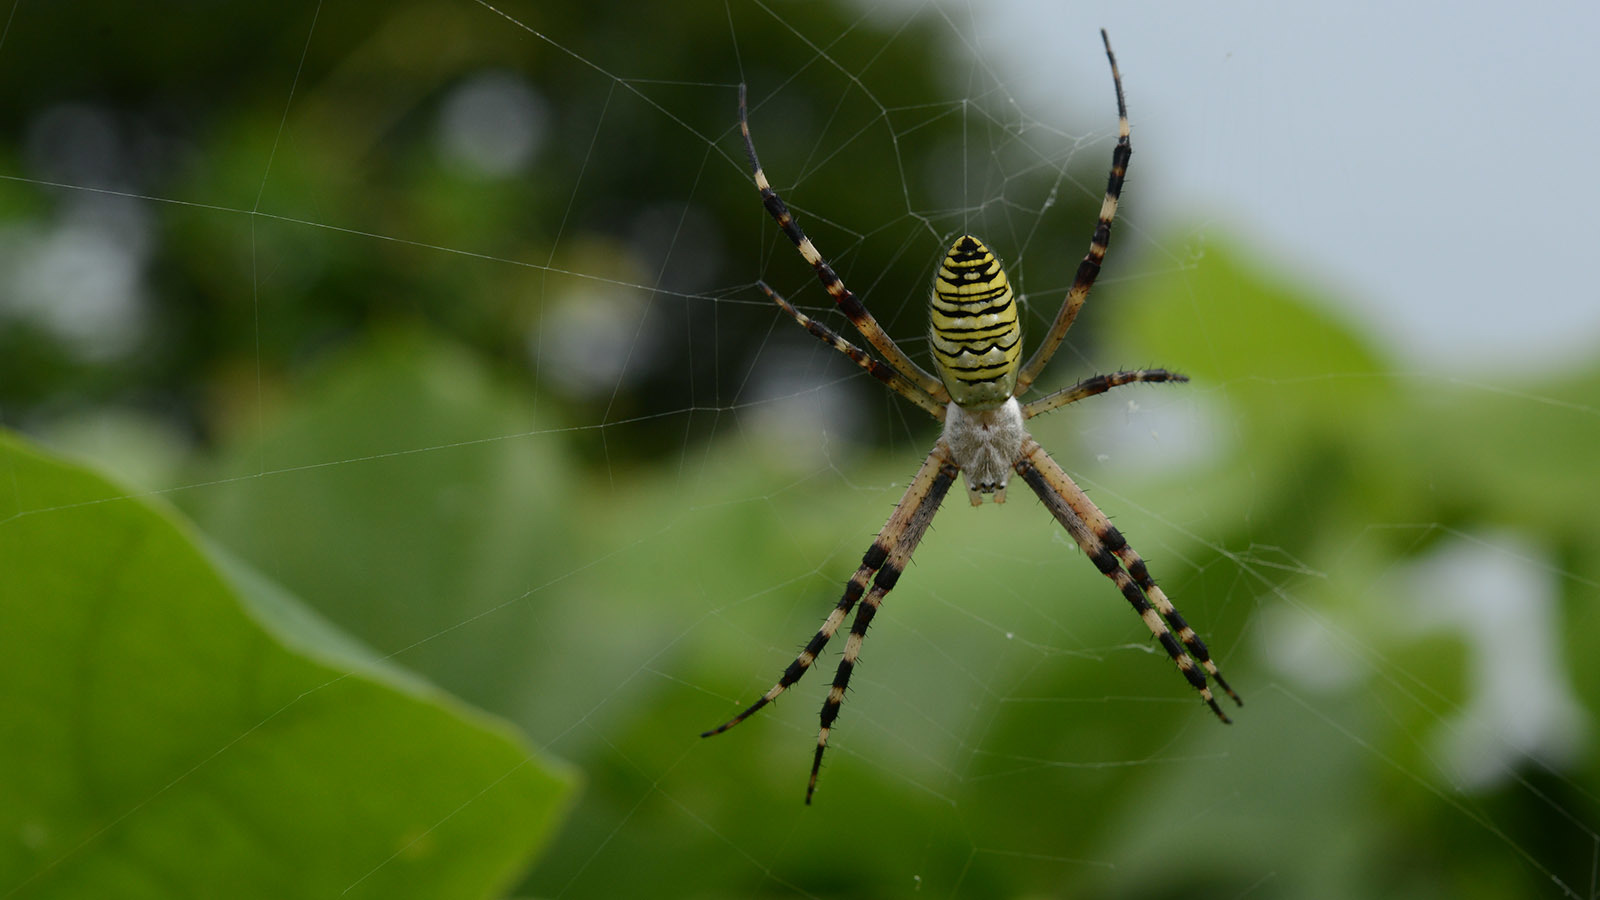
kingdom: Animalia
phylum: Arthropoda
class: Arachnida
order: Araneae
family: Araneidae
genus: Argiope
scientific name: Argiope bruennichi
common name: Wasp spider
